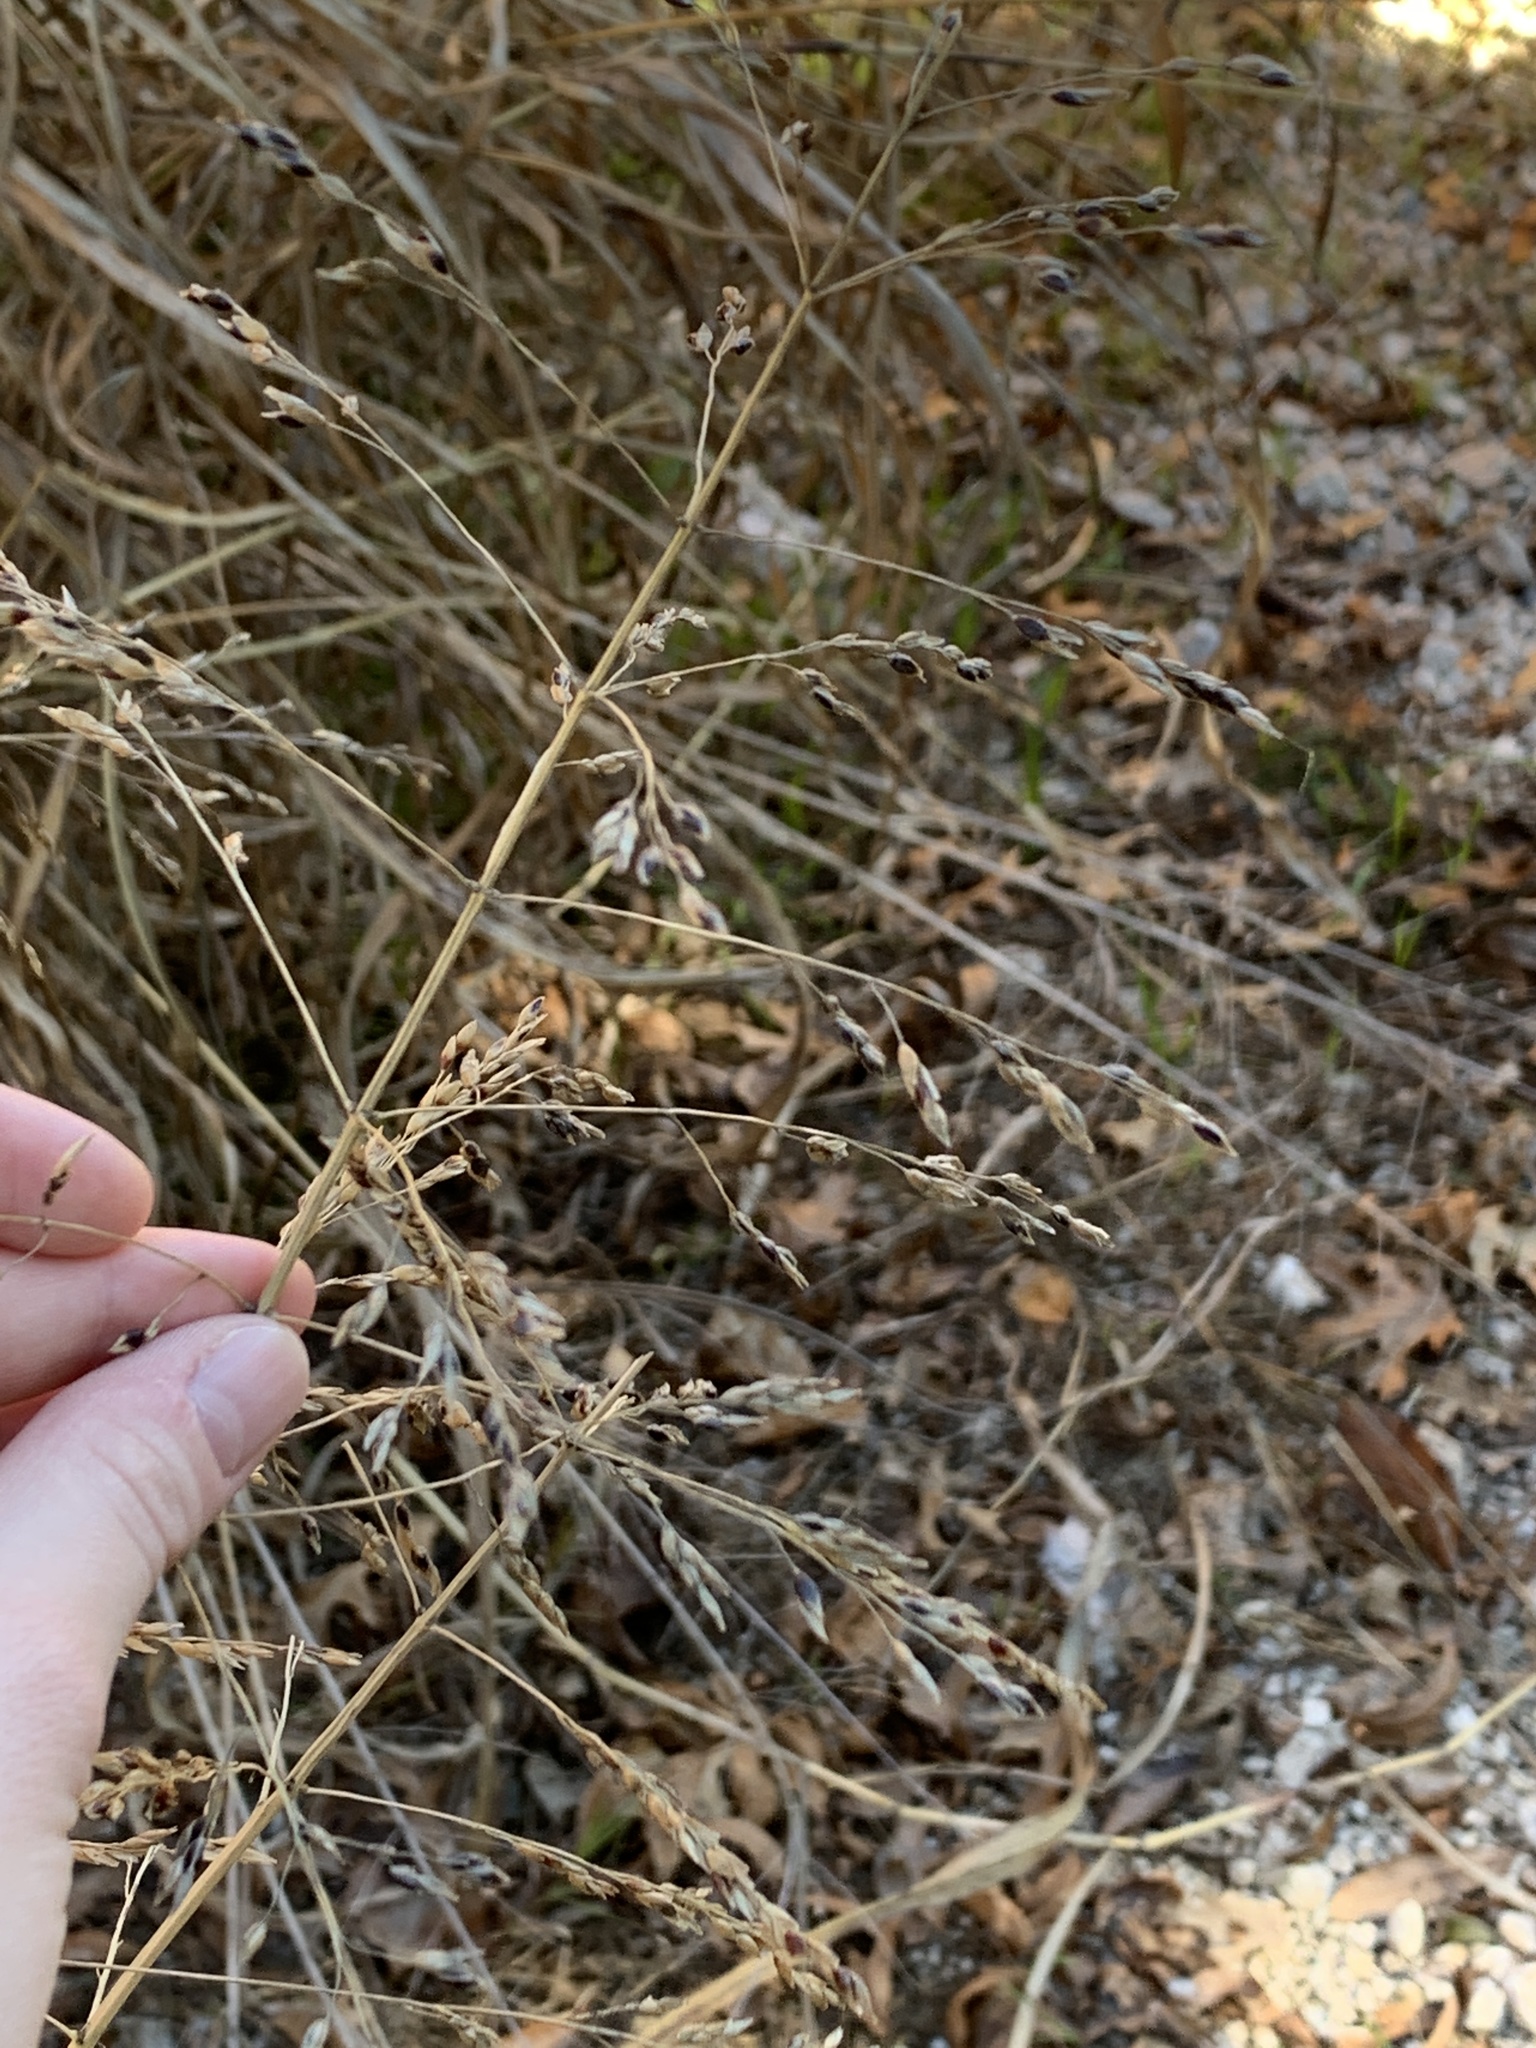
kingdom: Plantae
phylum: Tracheophyta
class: Liliopsida
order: Poales
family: Poaceae
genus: Sorghum
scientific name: Sorghum halepense
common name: Johnson-grass
